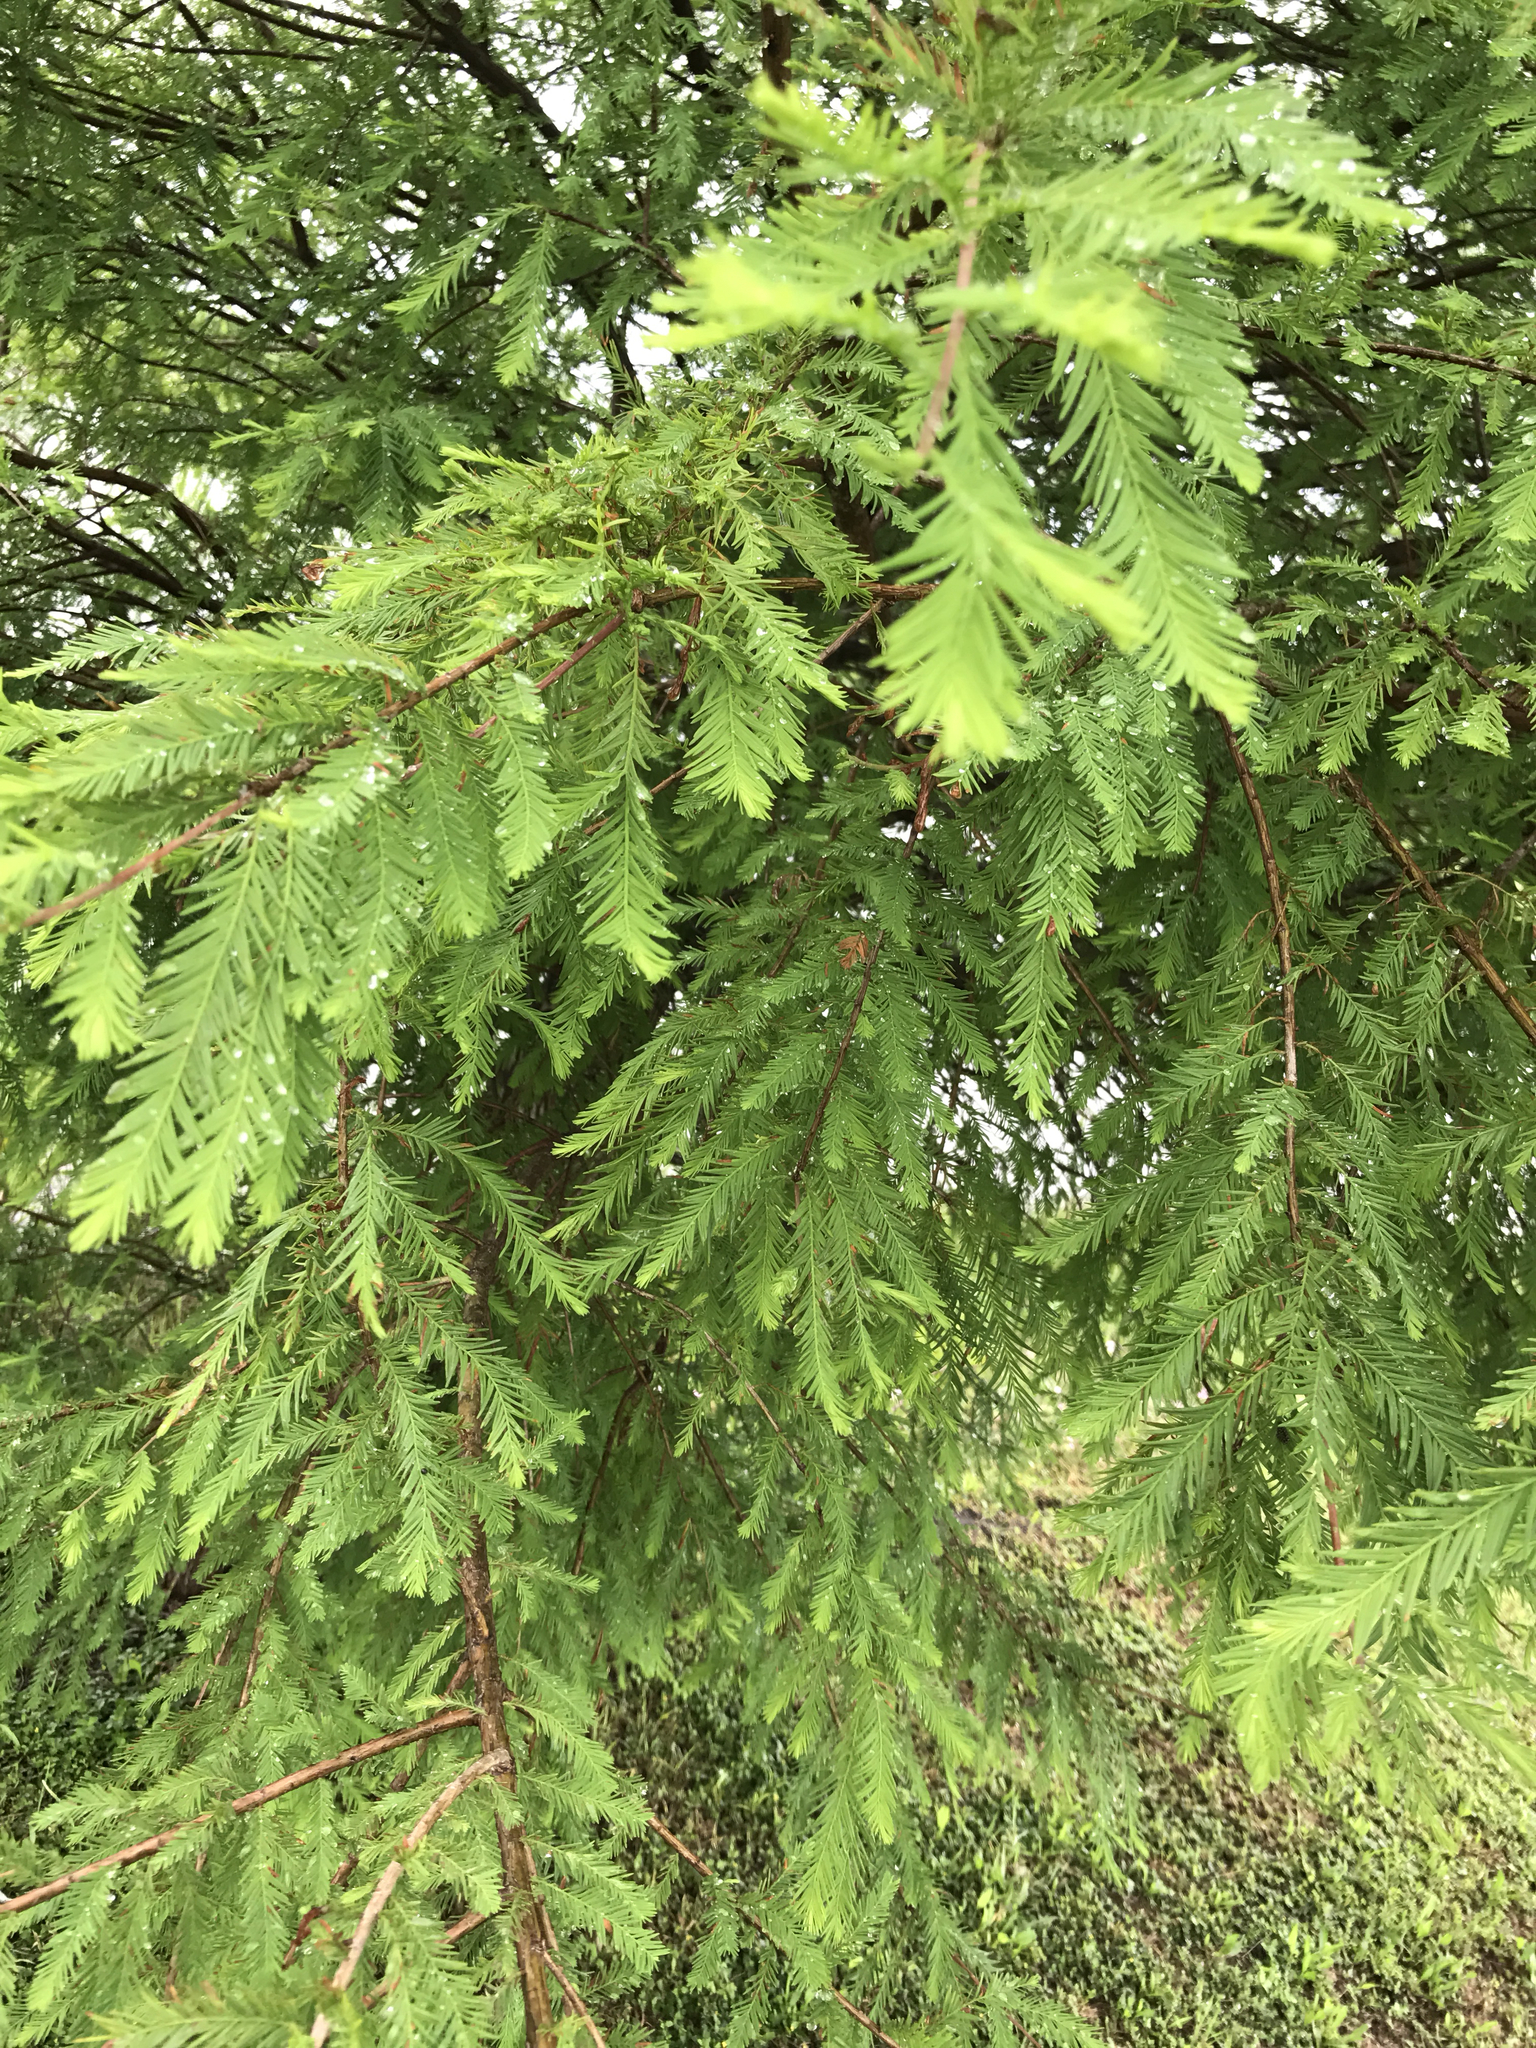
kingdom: Plantae
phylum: Tracheophyta
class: Pinopsida
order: Pinales
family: Cupressaceae
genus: Taxodium
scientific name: Taxodium distichum
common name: Bald cypress
